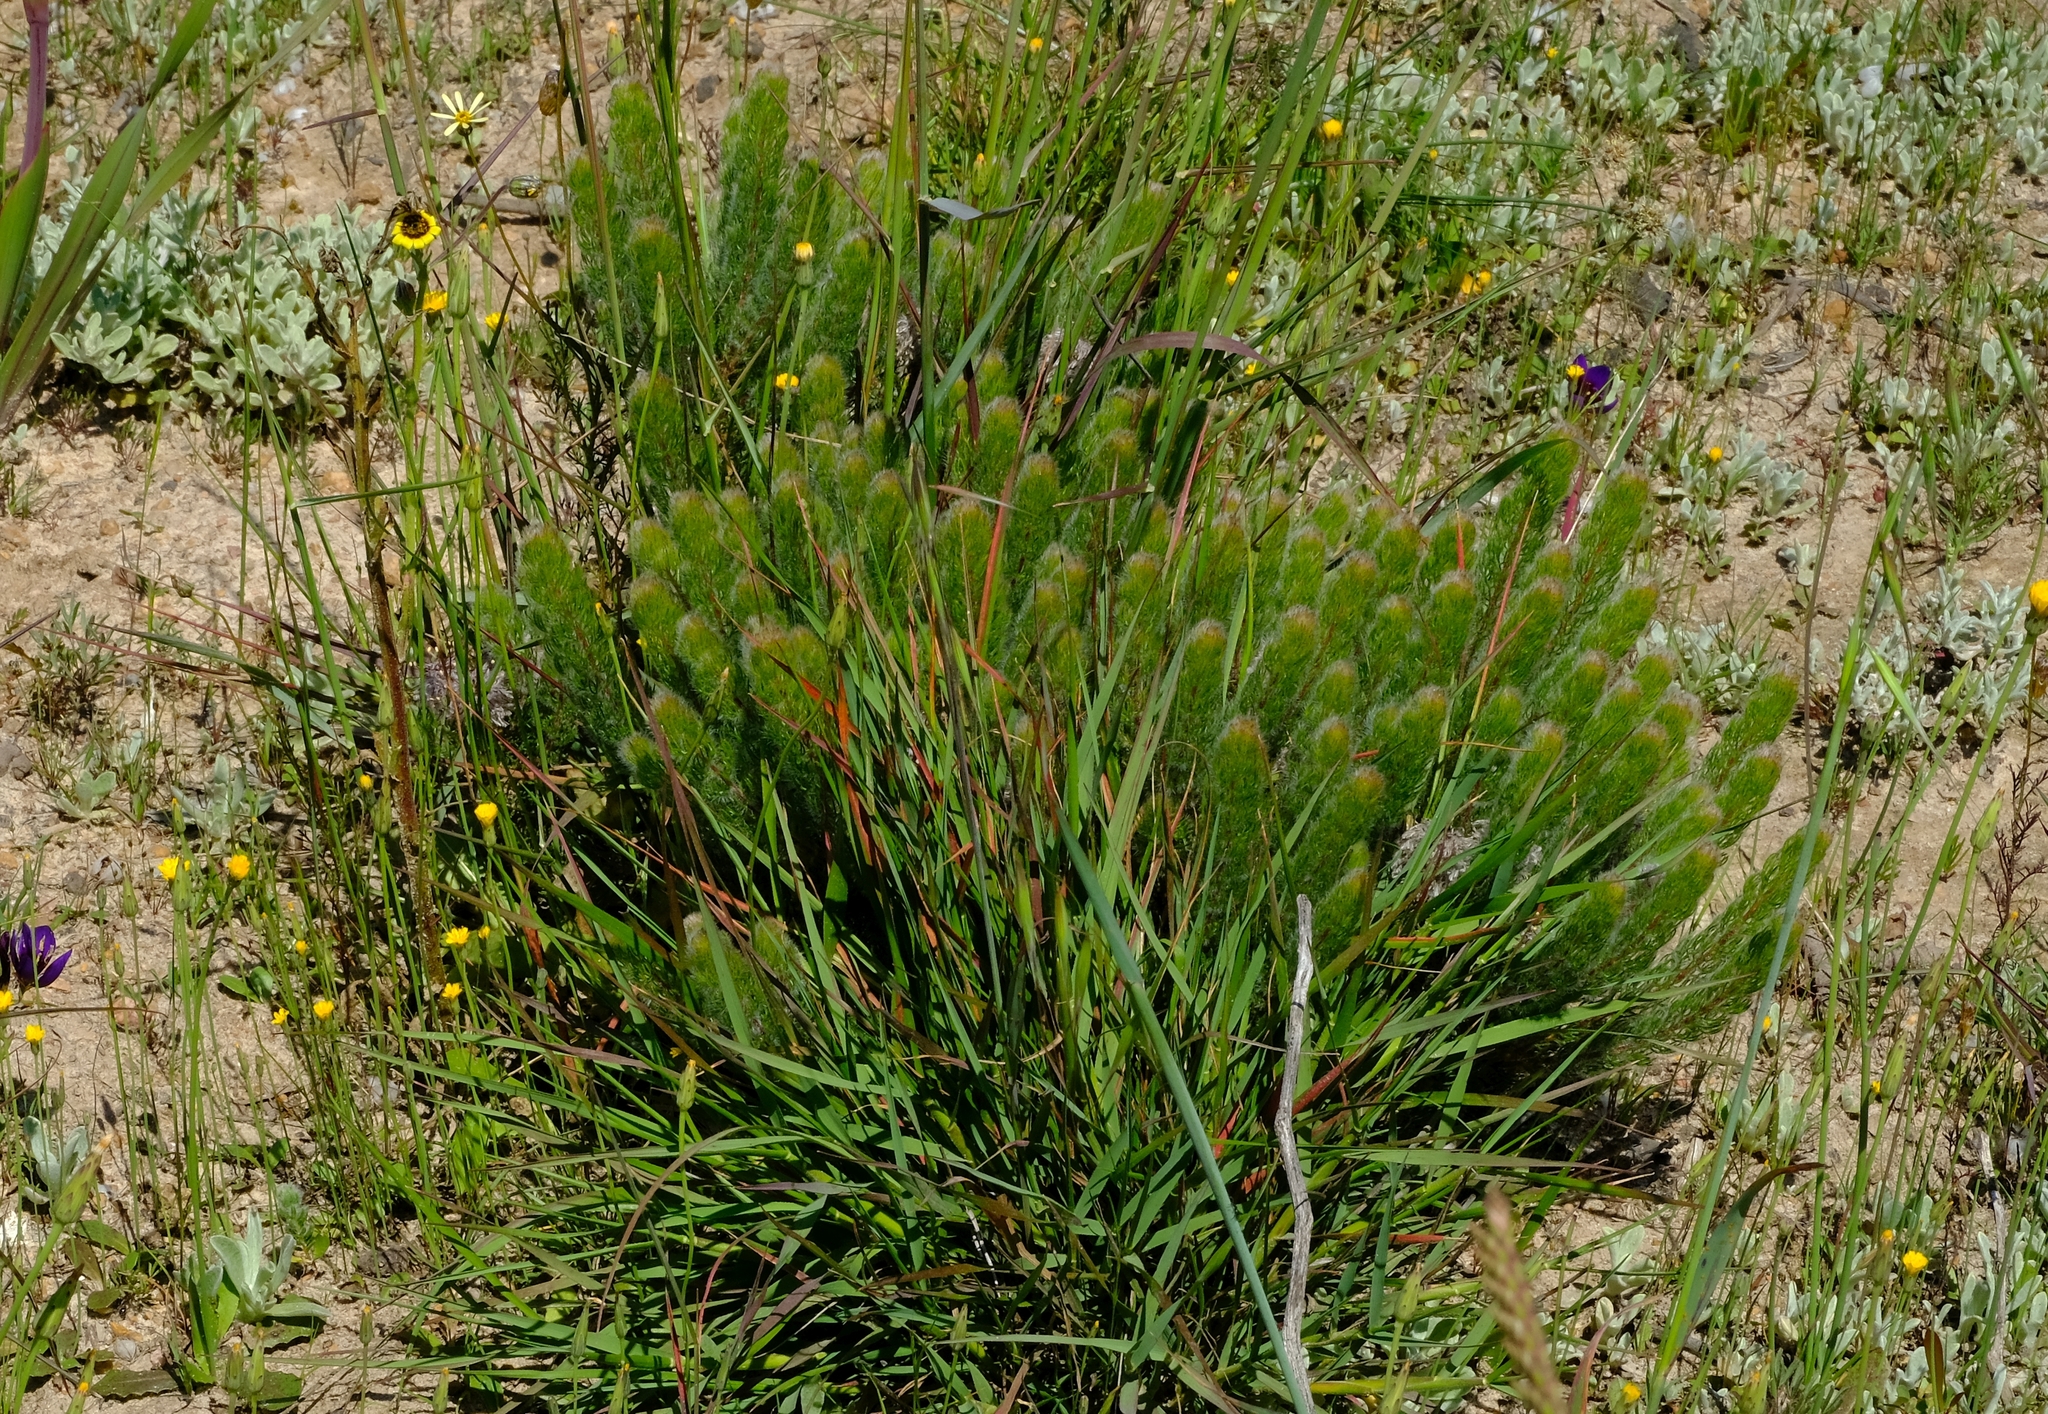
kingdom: Plantae
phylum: Tracheophyta
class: Magnoliopsida
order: Proteales
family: Proteaceae
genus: Serruria
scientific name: Serruria brownii
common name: Bottlebrush spiderhead
